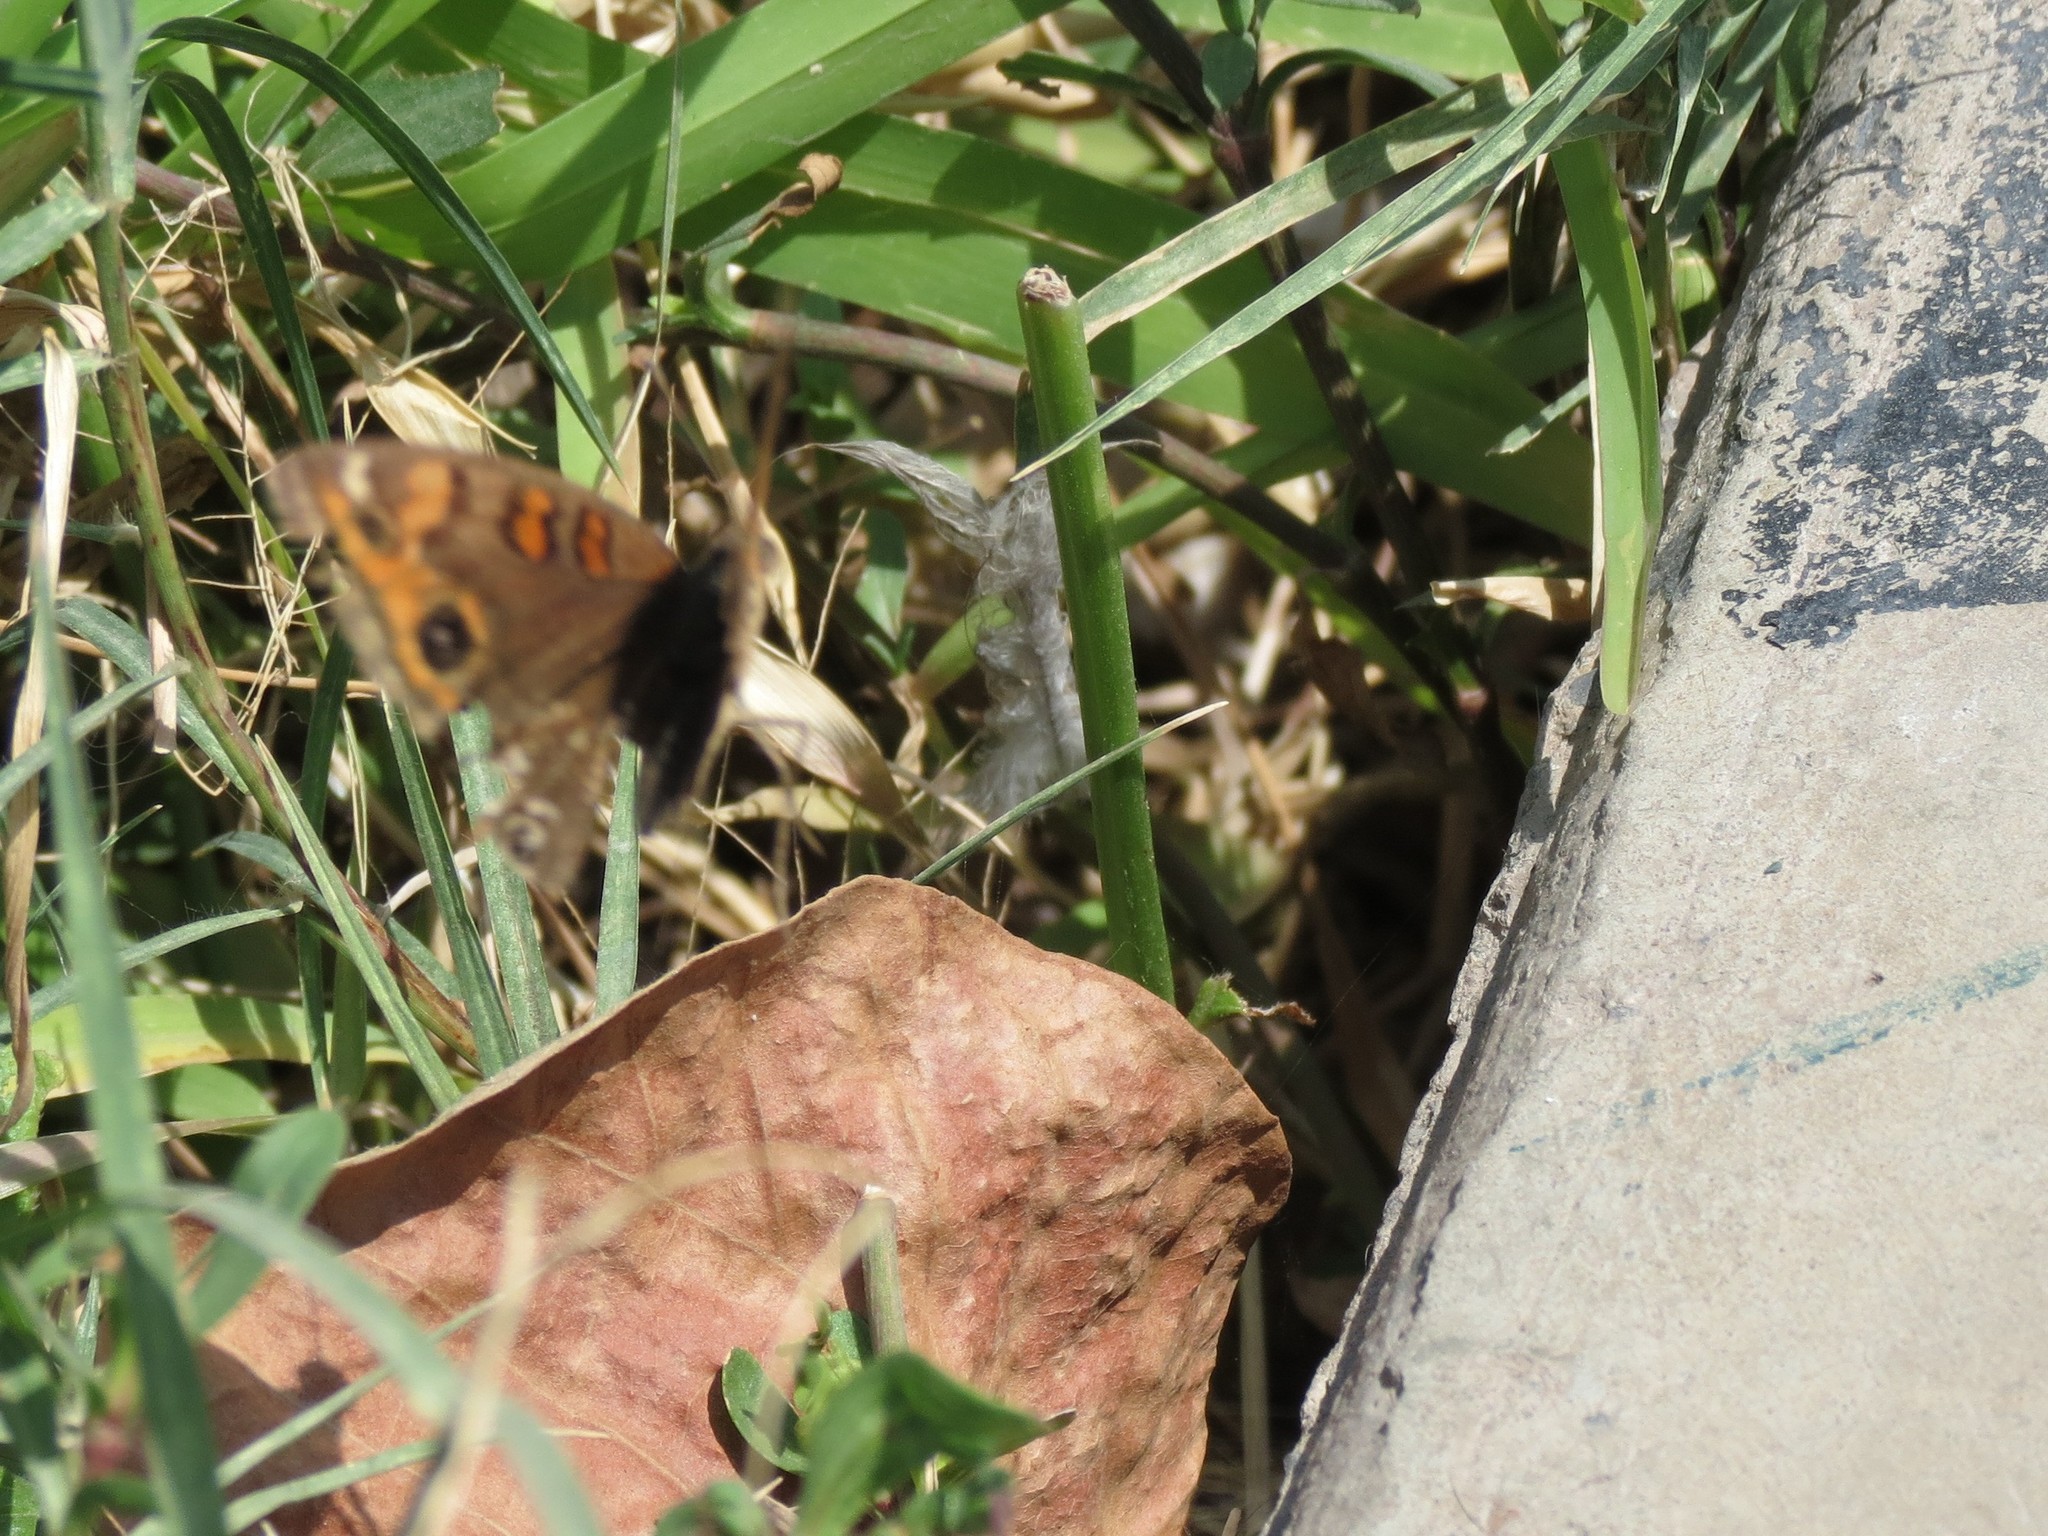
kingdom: Animalia
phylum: Arthropoda
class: Insecta
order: Lepidoptera
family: Nymphalidae
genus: Junonia
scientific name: Junonia lavinia
